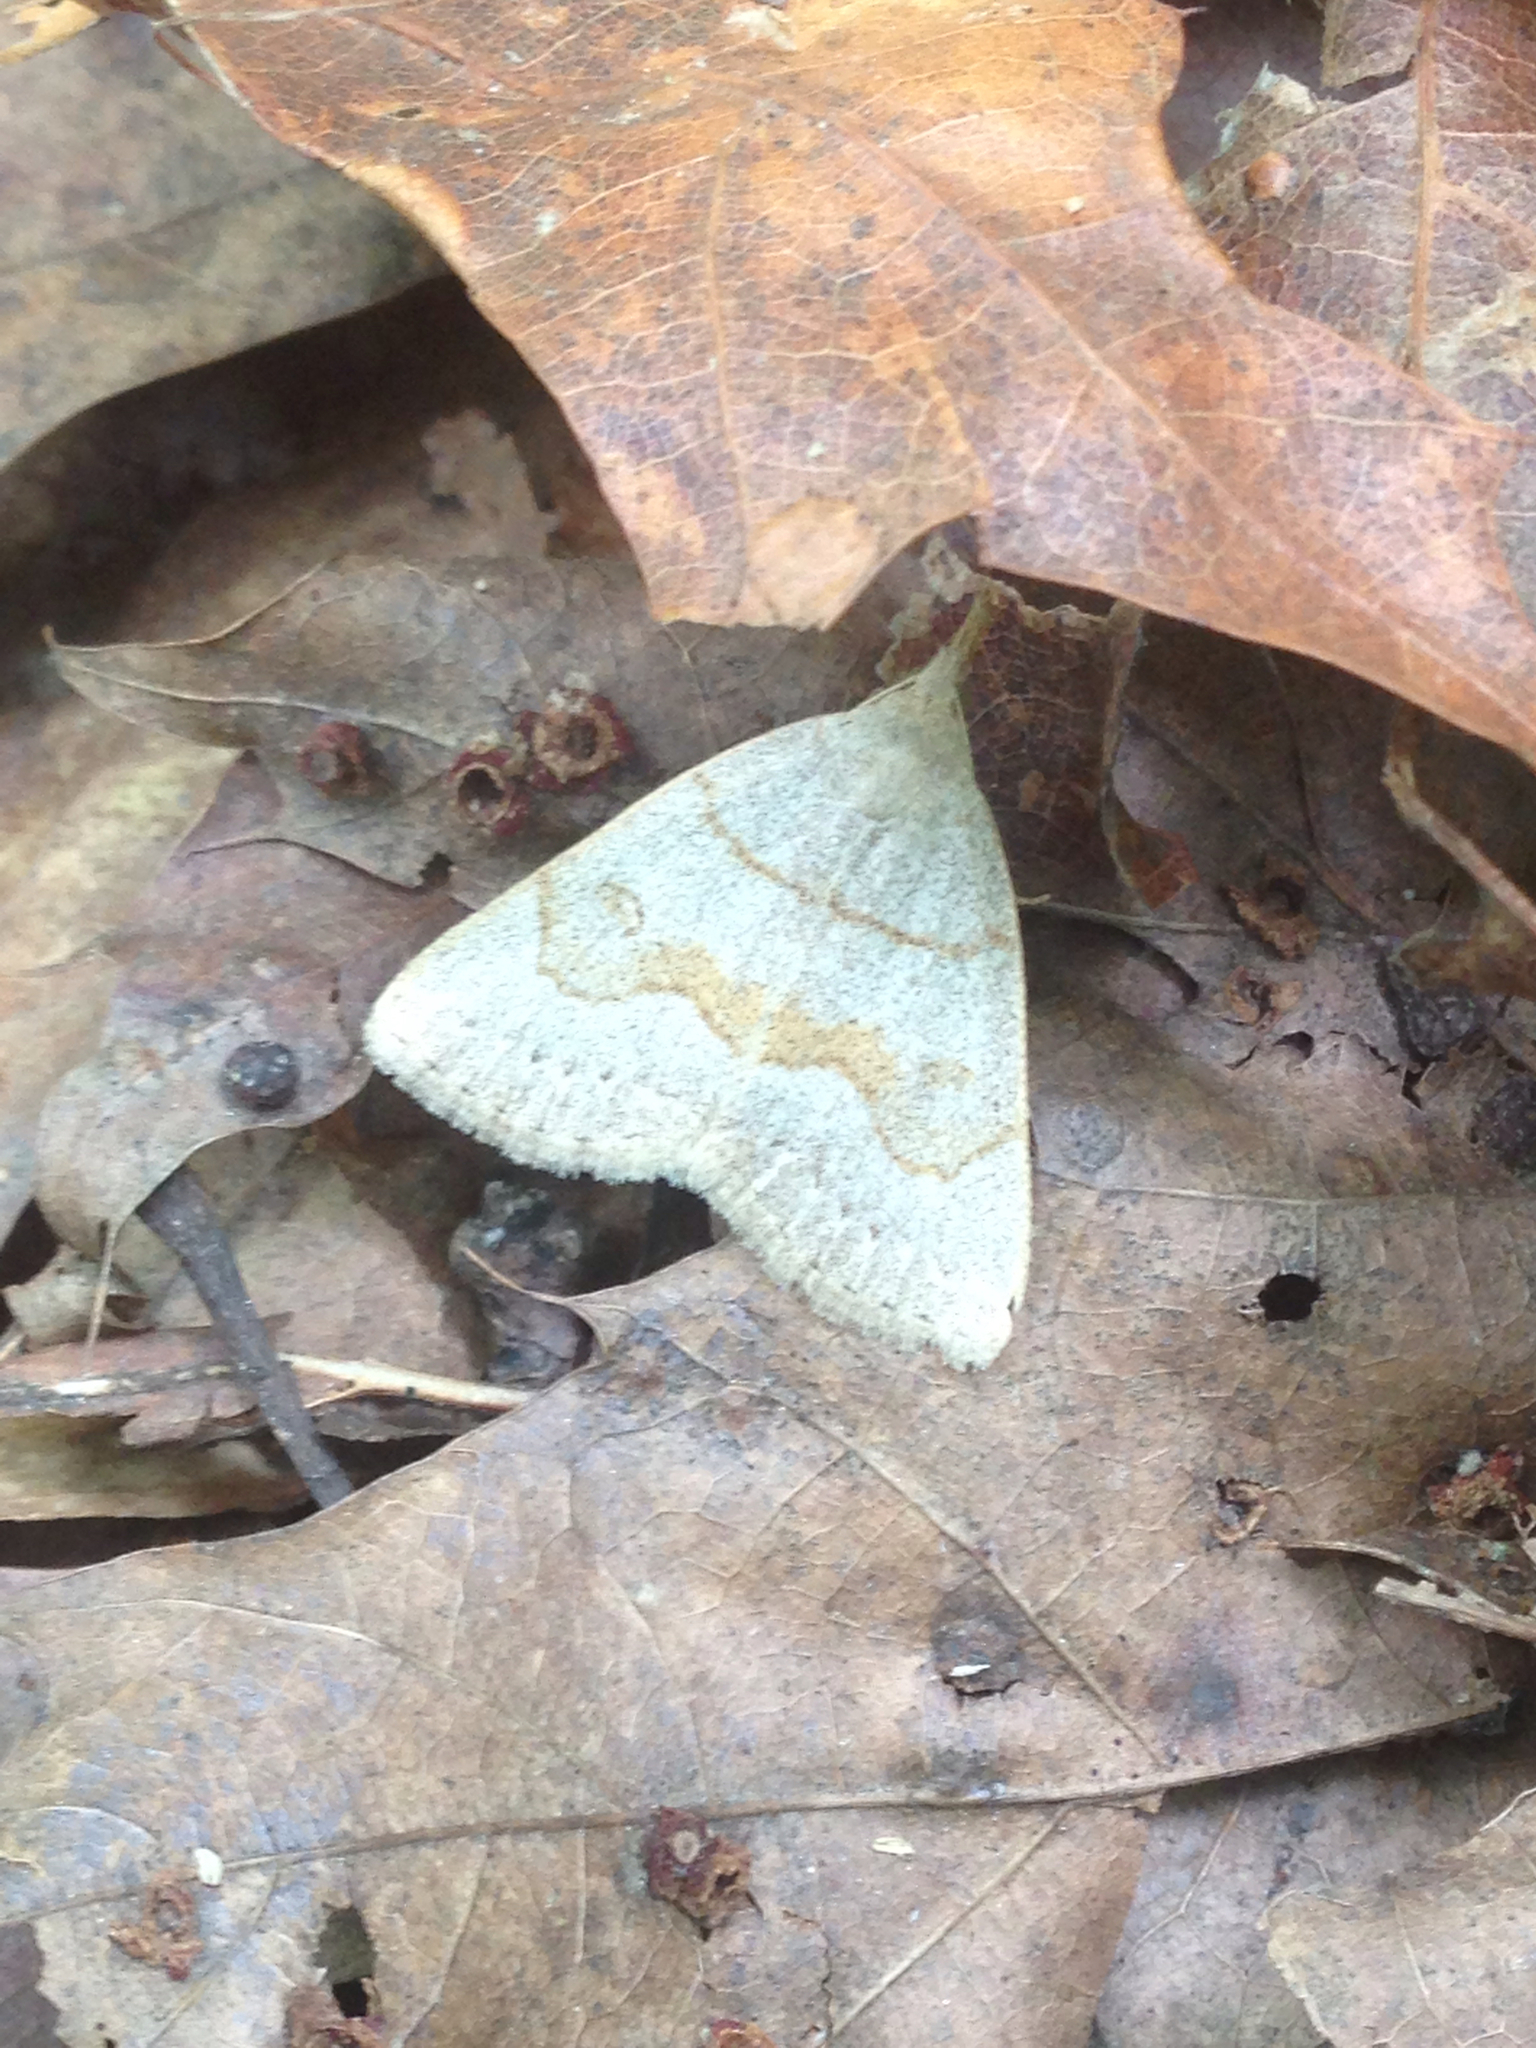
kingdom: Animalia
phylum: Arthropoda
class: Insecta
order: Lepidoptera
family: Erebidae
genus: Macrochilo
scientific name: Macrochilo morbidalis
